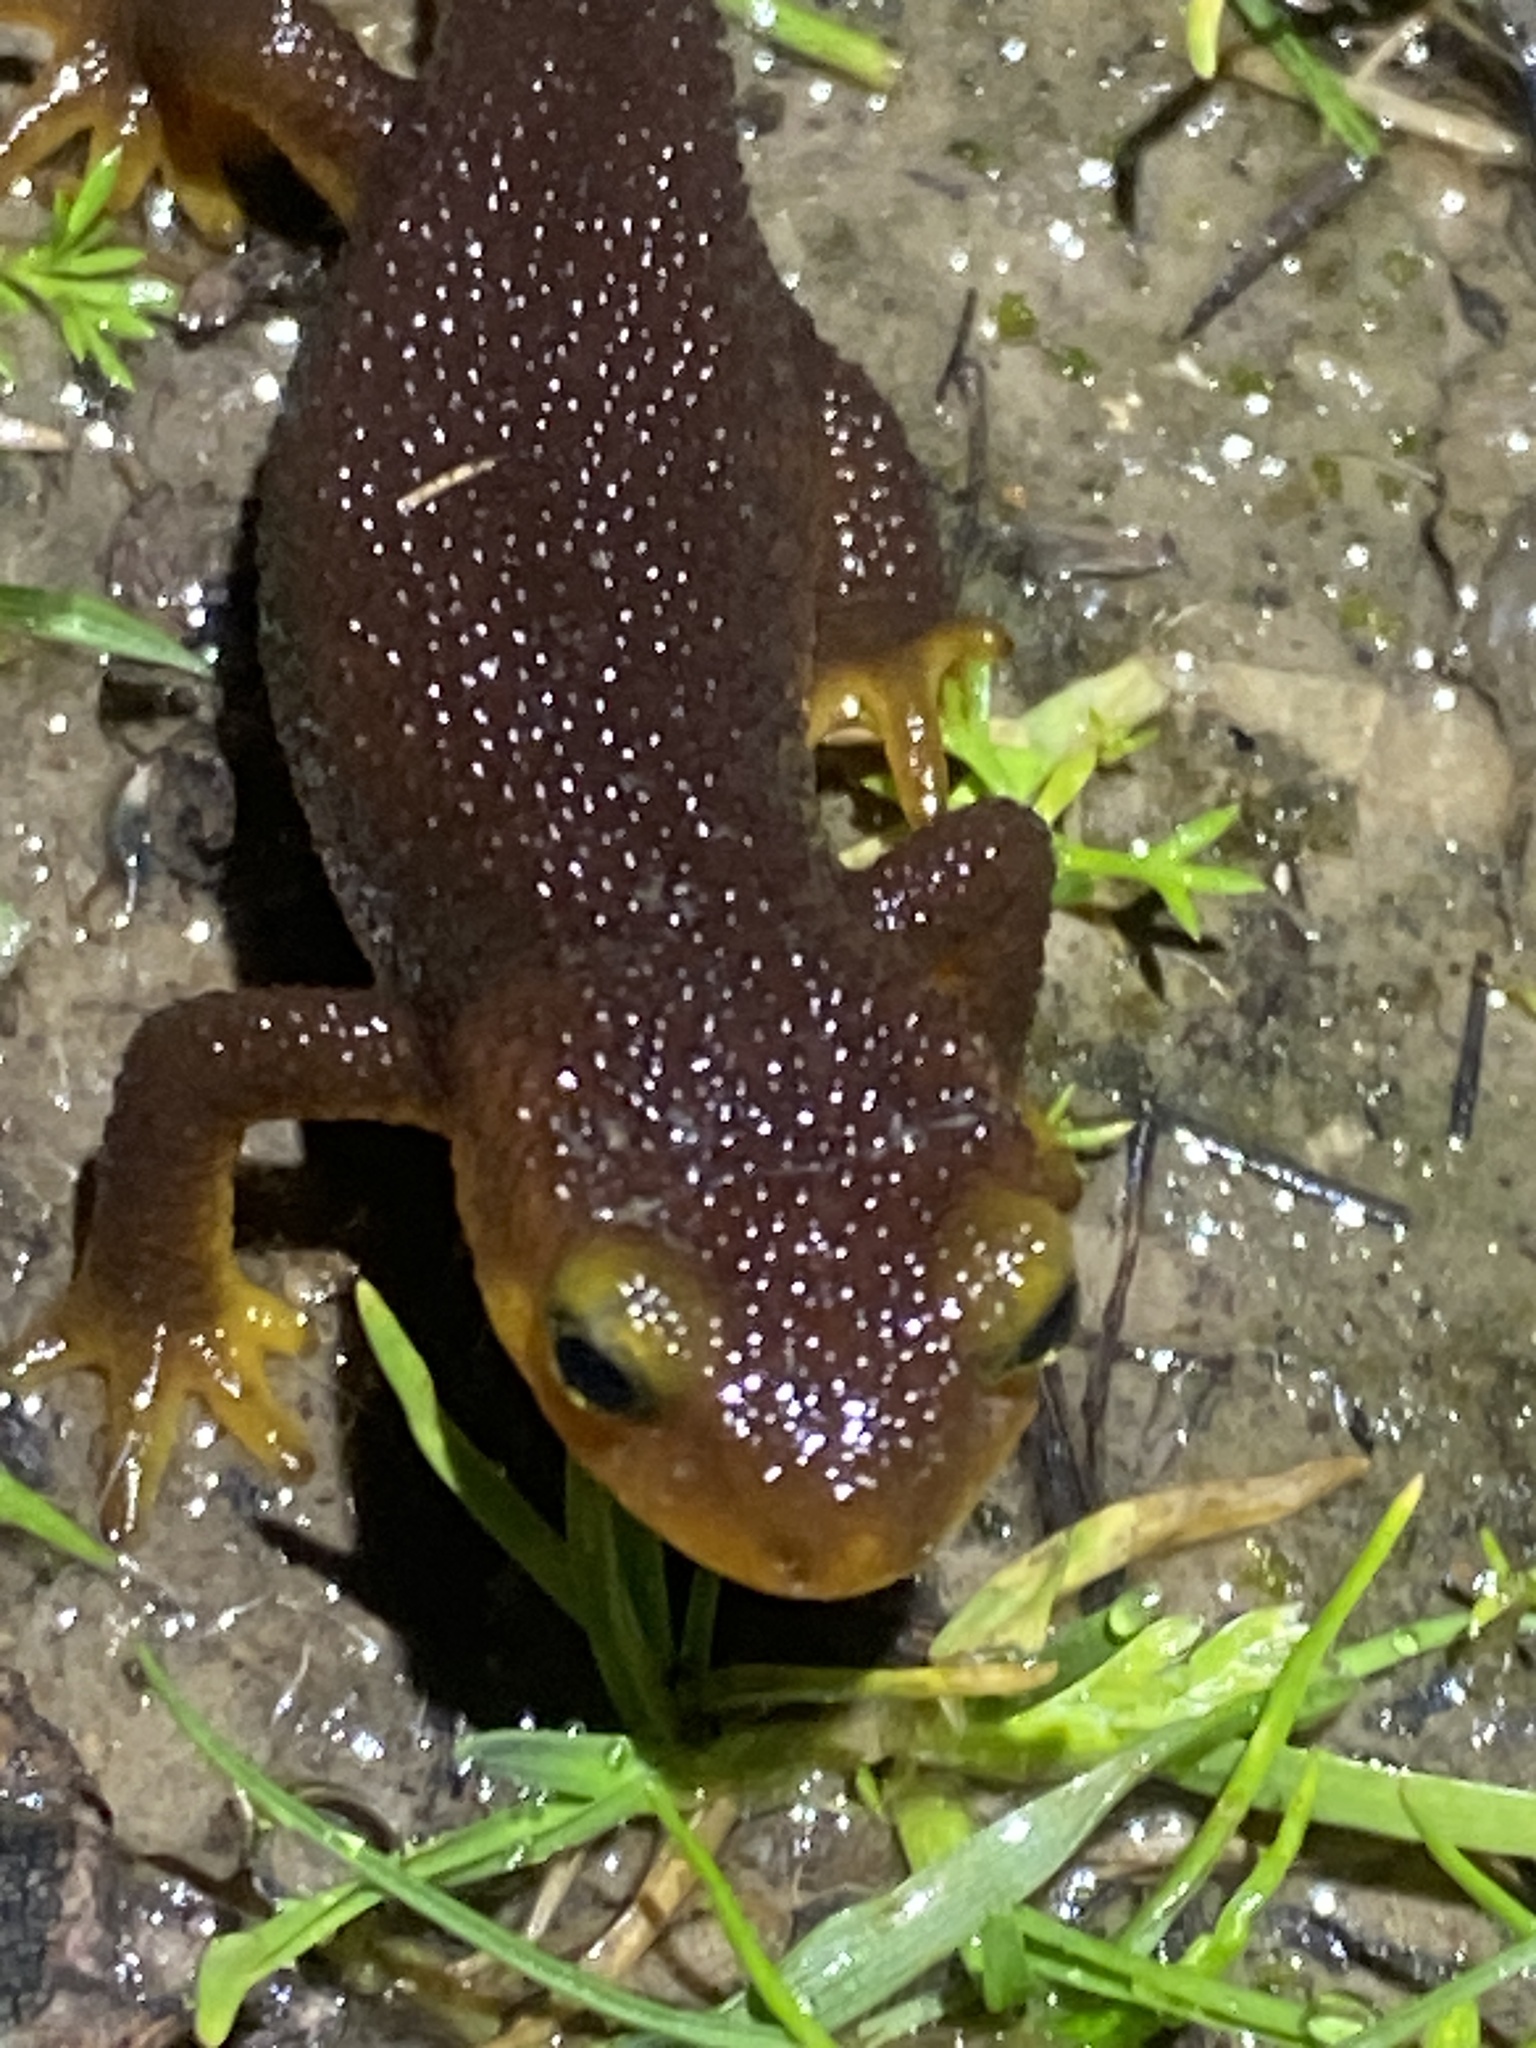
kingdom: Animalia
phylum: Chordata
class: Amphibia
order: Caudata
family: Salamandridae
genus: Taricha
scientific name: Taricha torosa
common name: California newt
